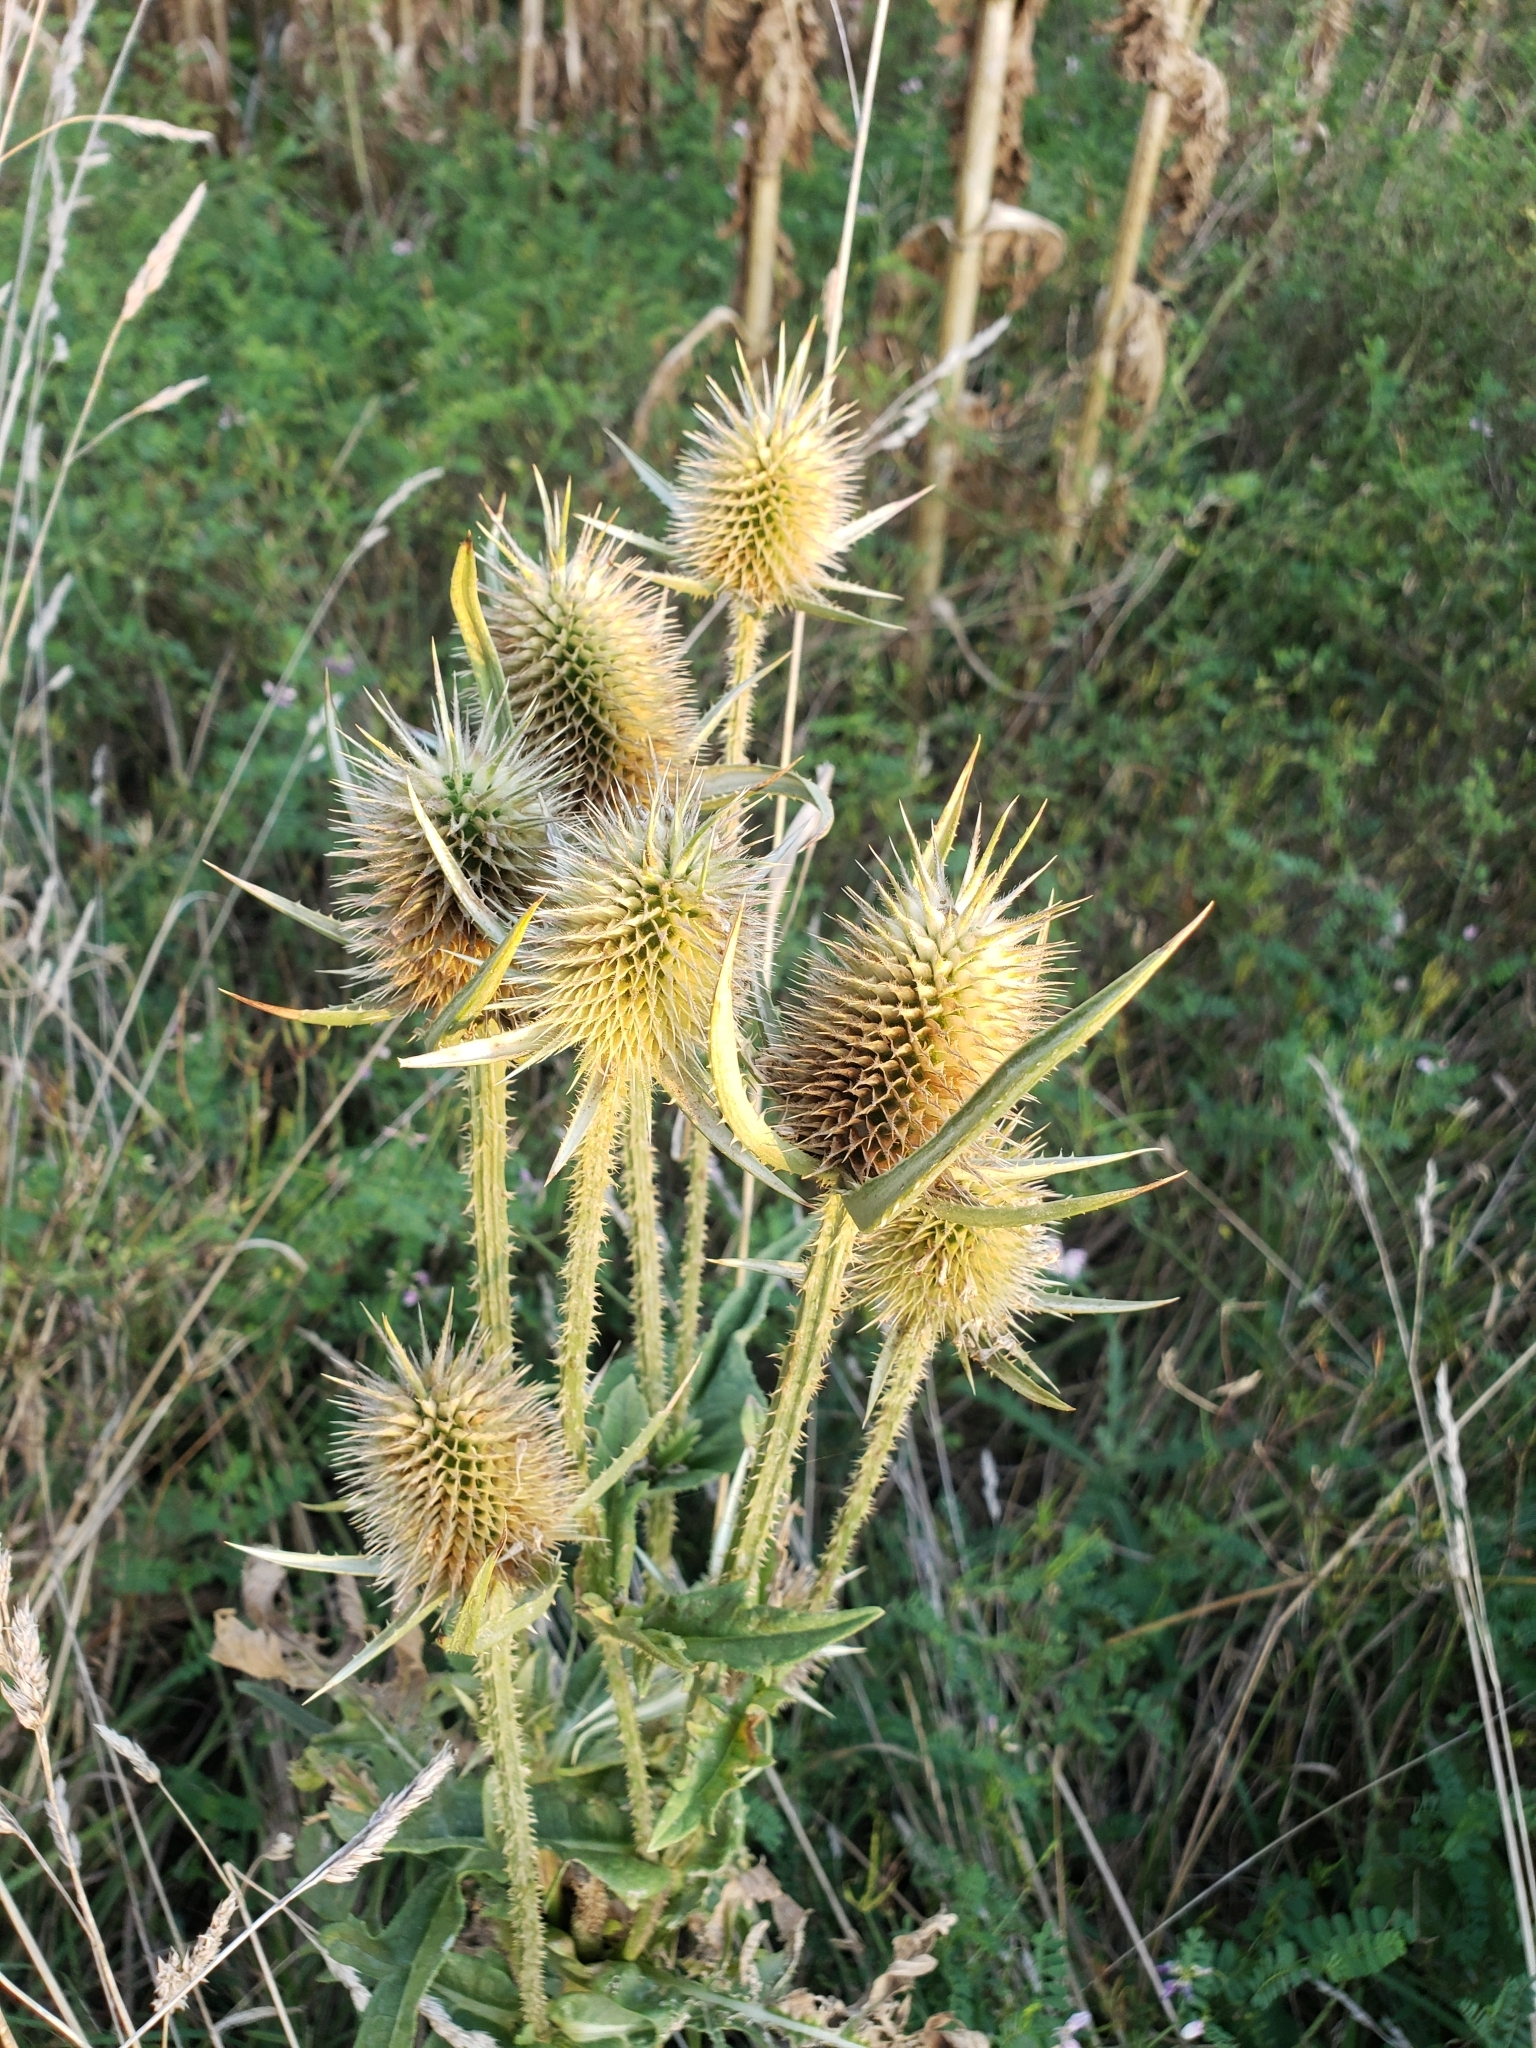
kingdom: Plantae
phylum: Tracheophyta
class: Magnoliopsida
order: Dipsacales
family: Caprifoliaceae
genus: Dipsacus
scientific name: Dipsacus laciniatus
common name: Cut-leaved teasel
